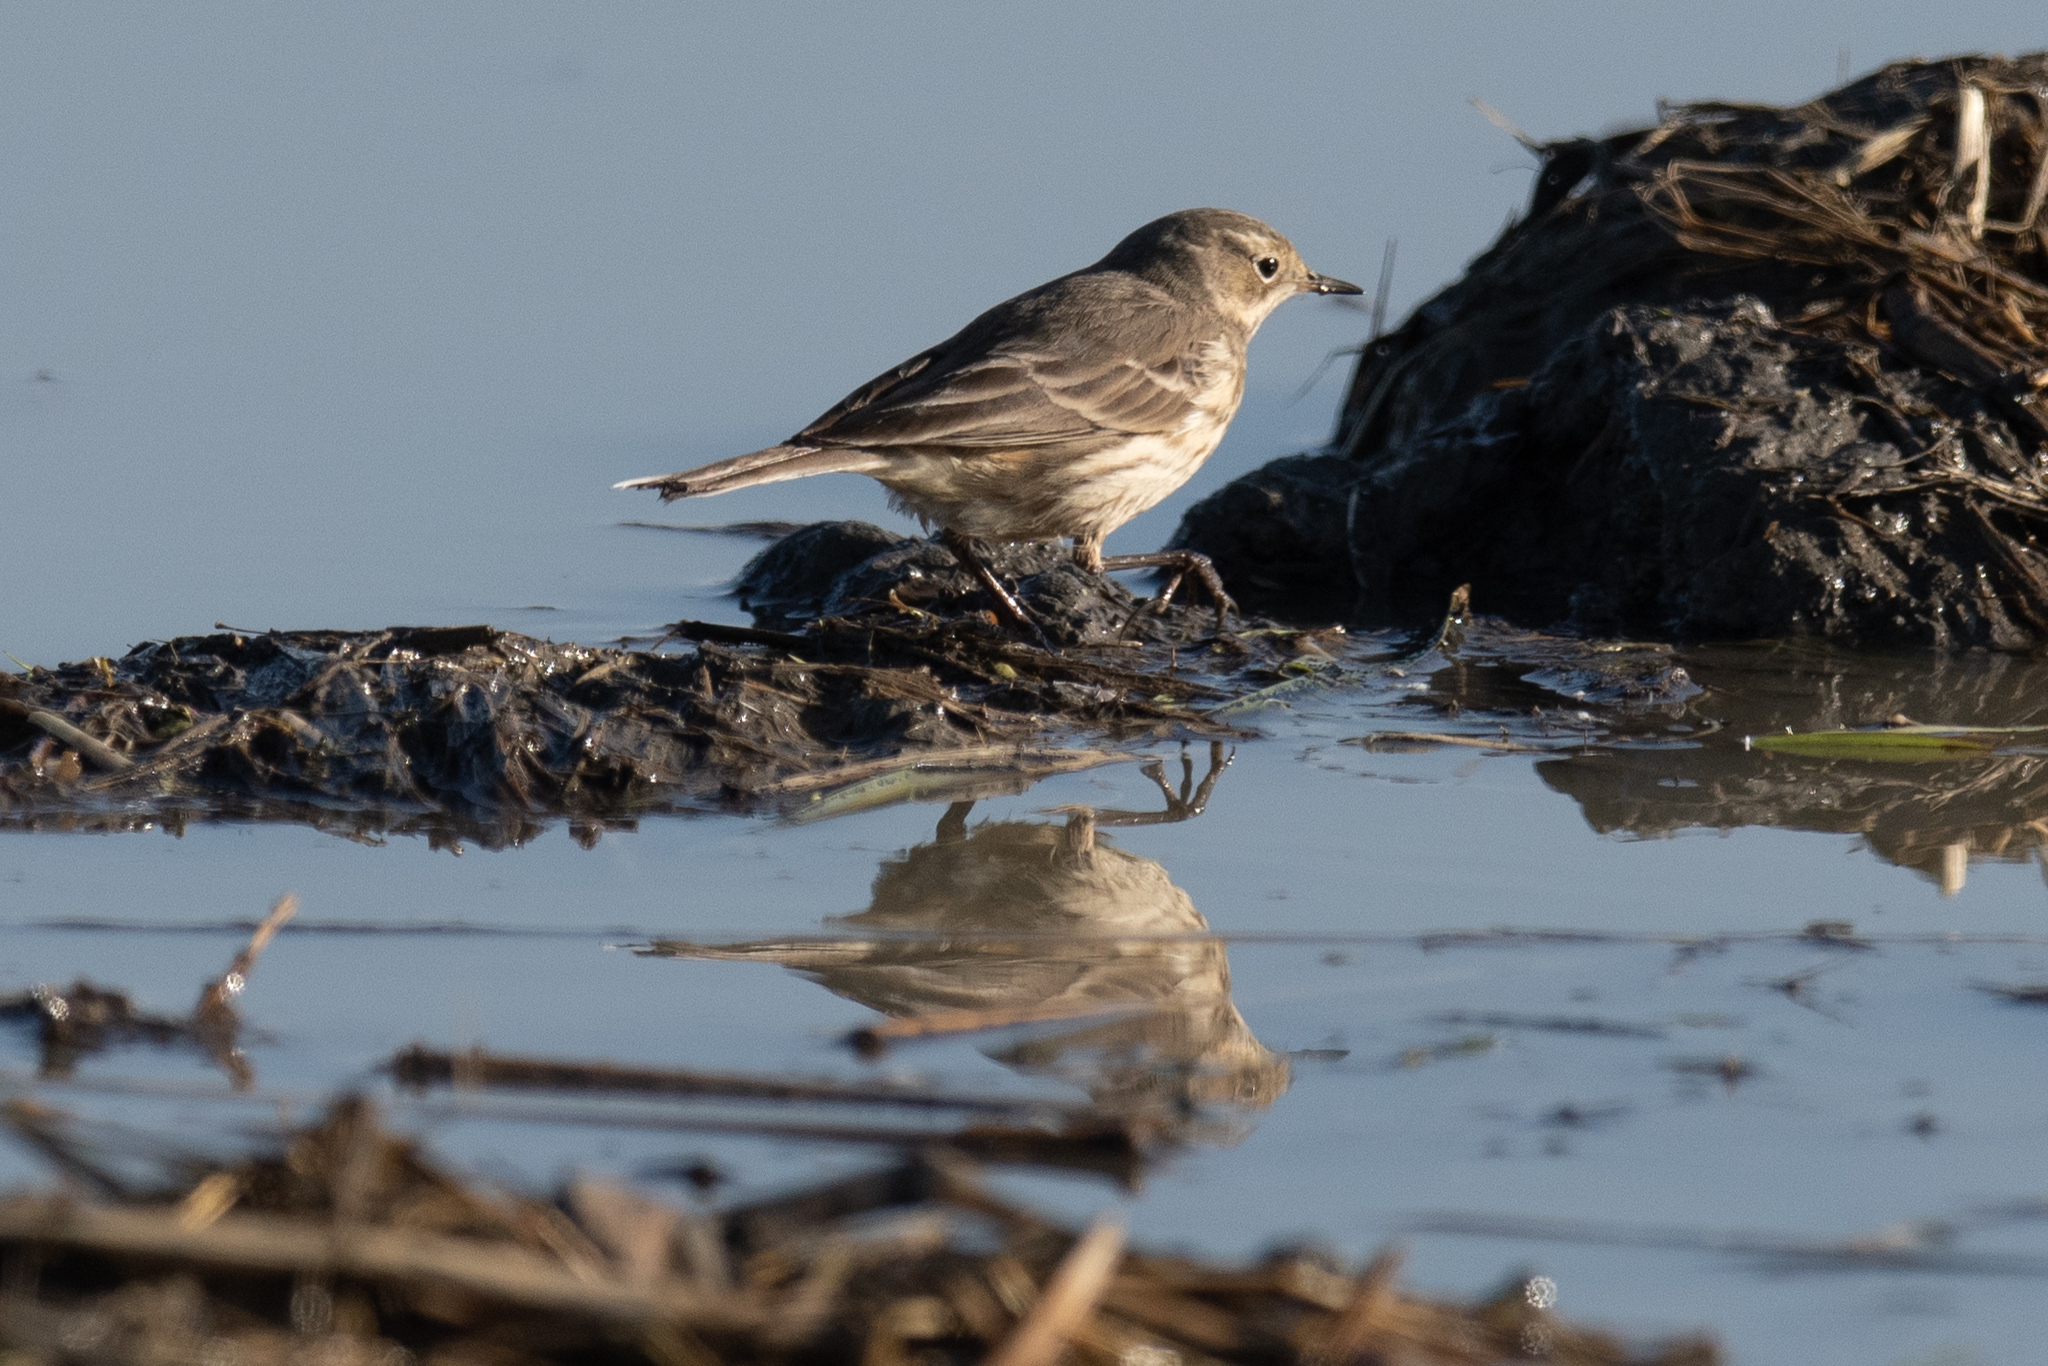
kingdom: Animalia
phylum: Chordata
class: Aves
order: Passeriformes
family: Motacillidae
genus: Anthus
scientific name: Anthus rubescens
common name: Buff-bellied pipit
